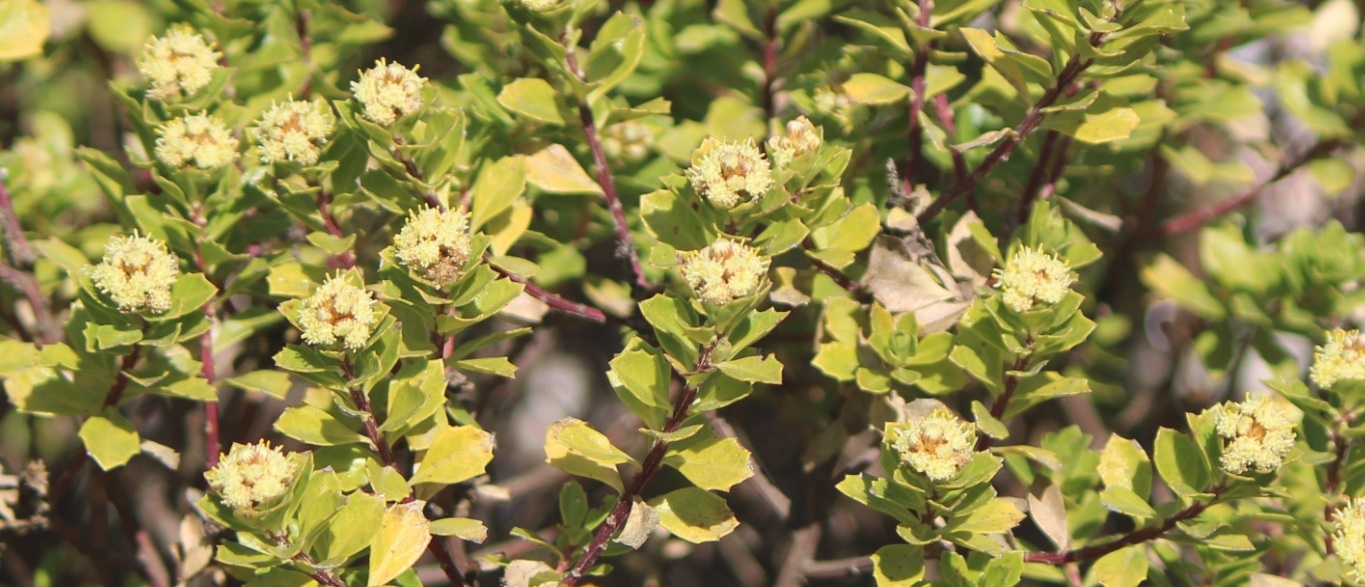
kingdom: Plantae
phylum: Tracheophyta
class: Magnoliopsida
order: Asterales
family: Asteraceae
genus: Baccharis
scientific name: Baccharis conferta
